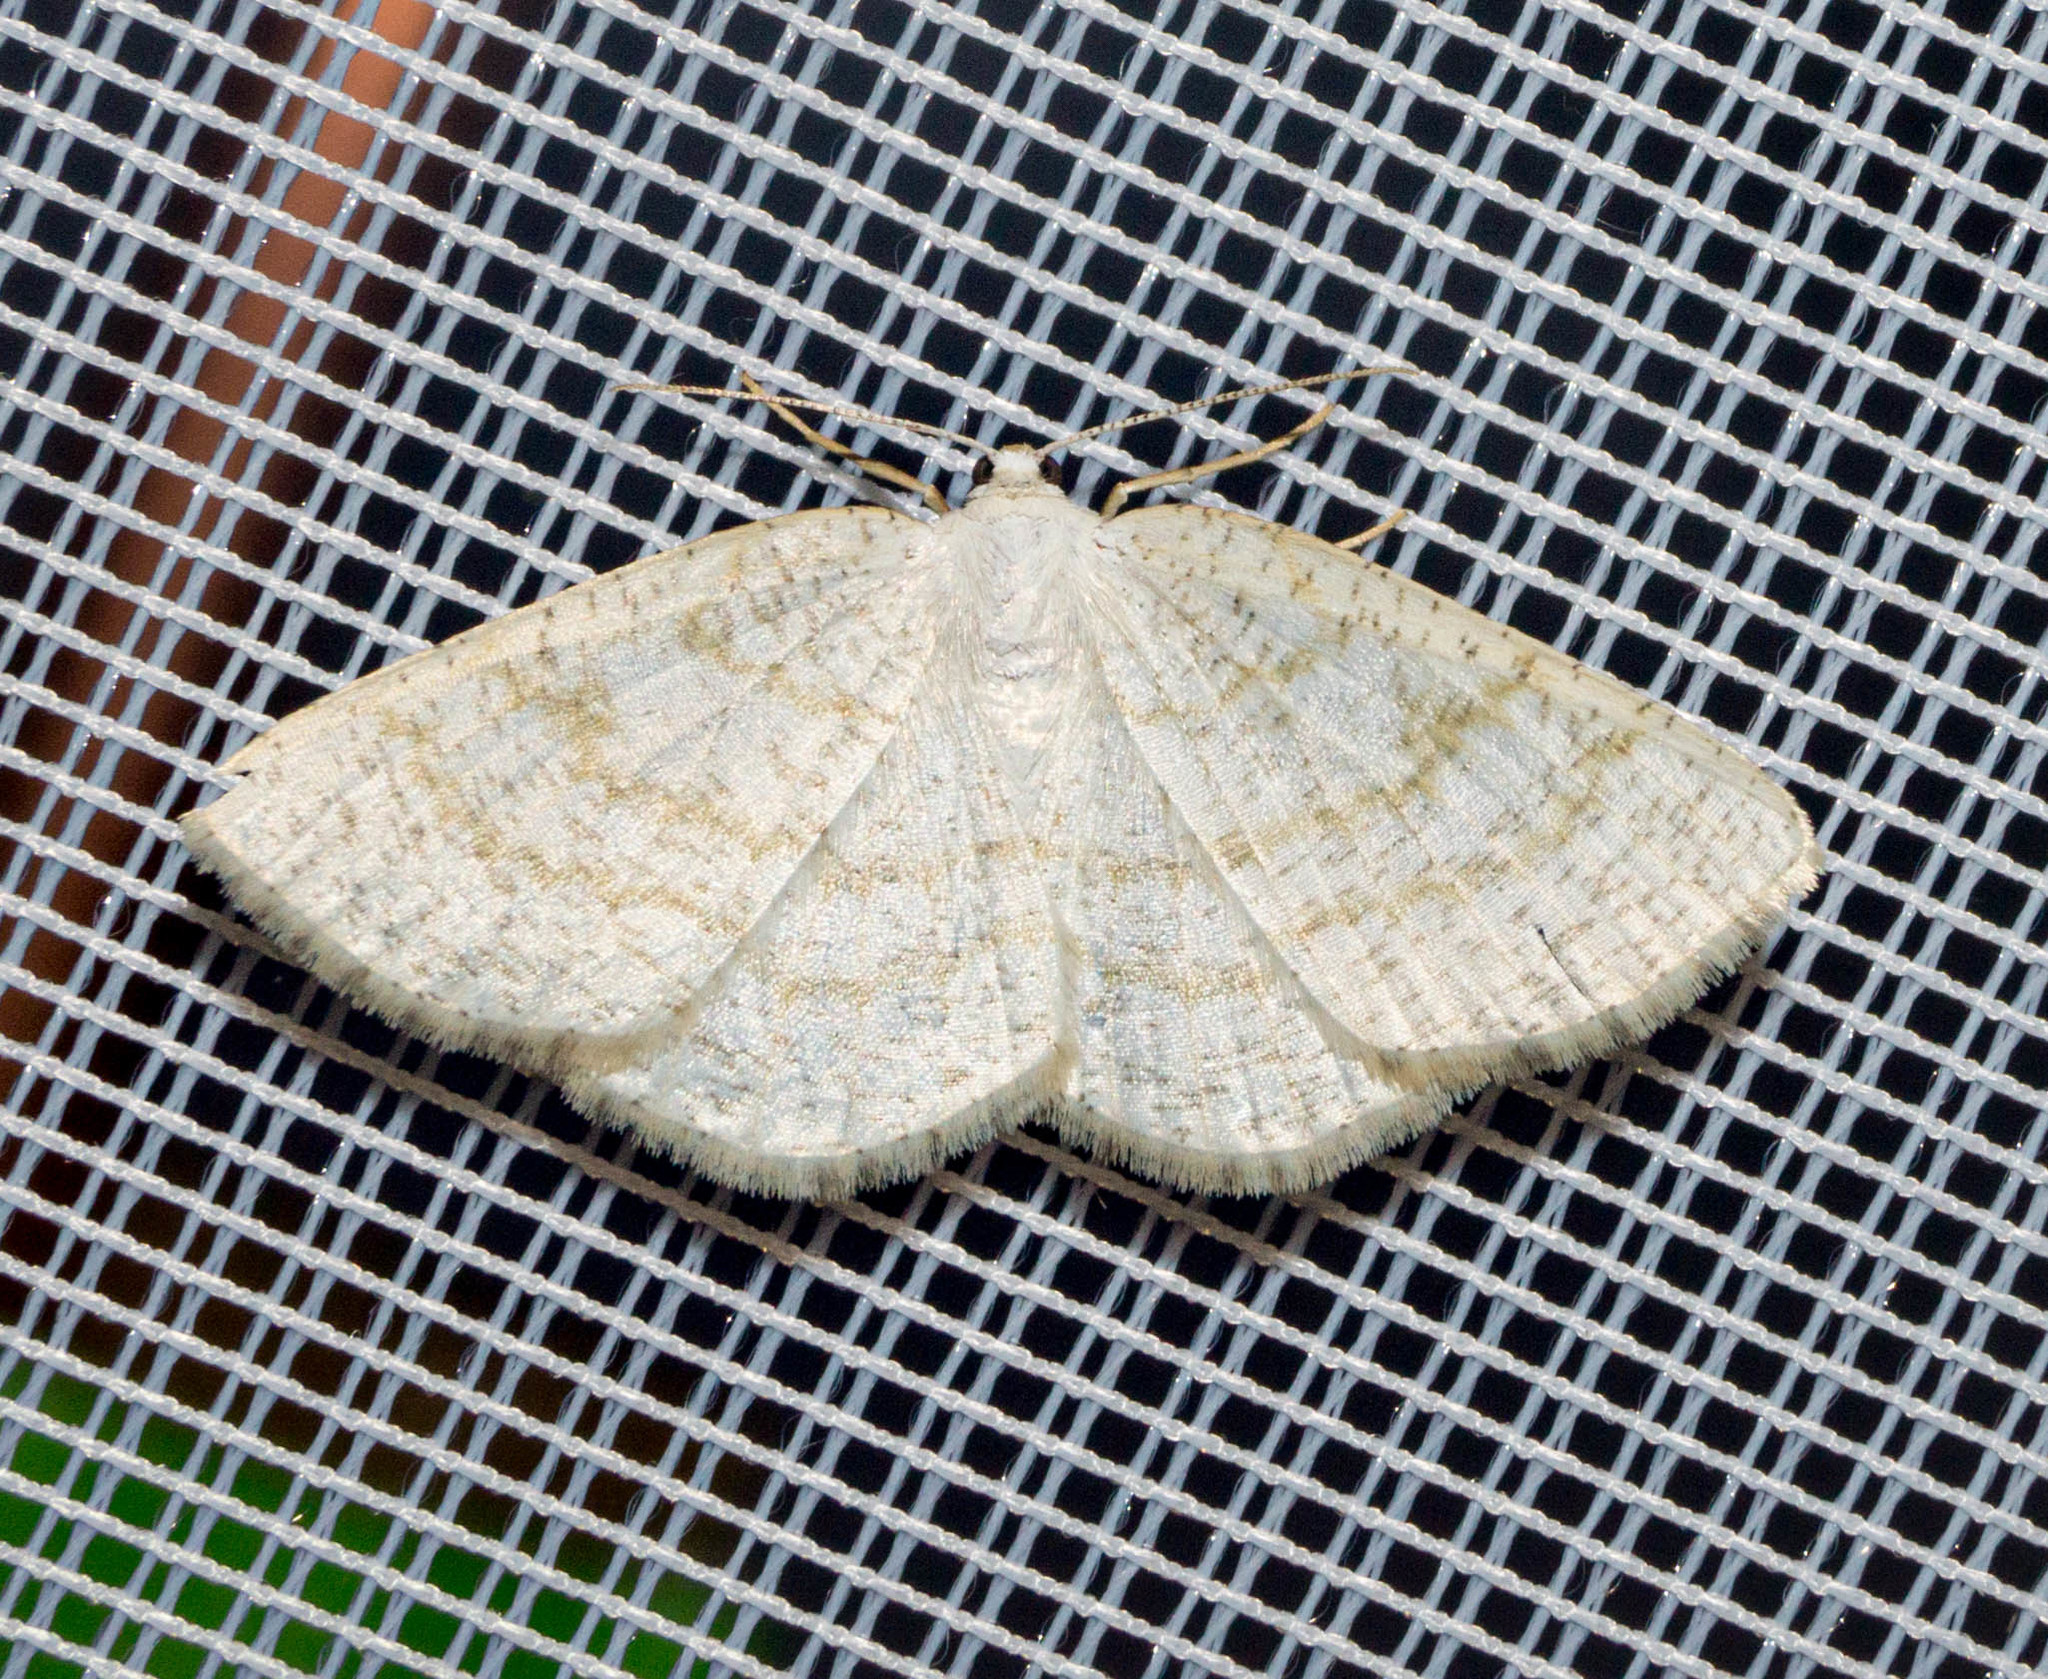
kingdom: Animalia
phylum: Arthropoda
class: Insecta
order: Lepidoptera
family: Geometridae
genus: Cabera
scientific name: Cabera exanthemata
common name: Common wave
